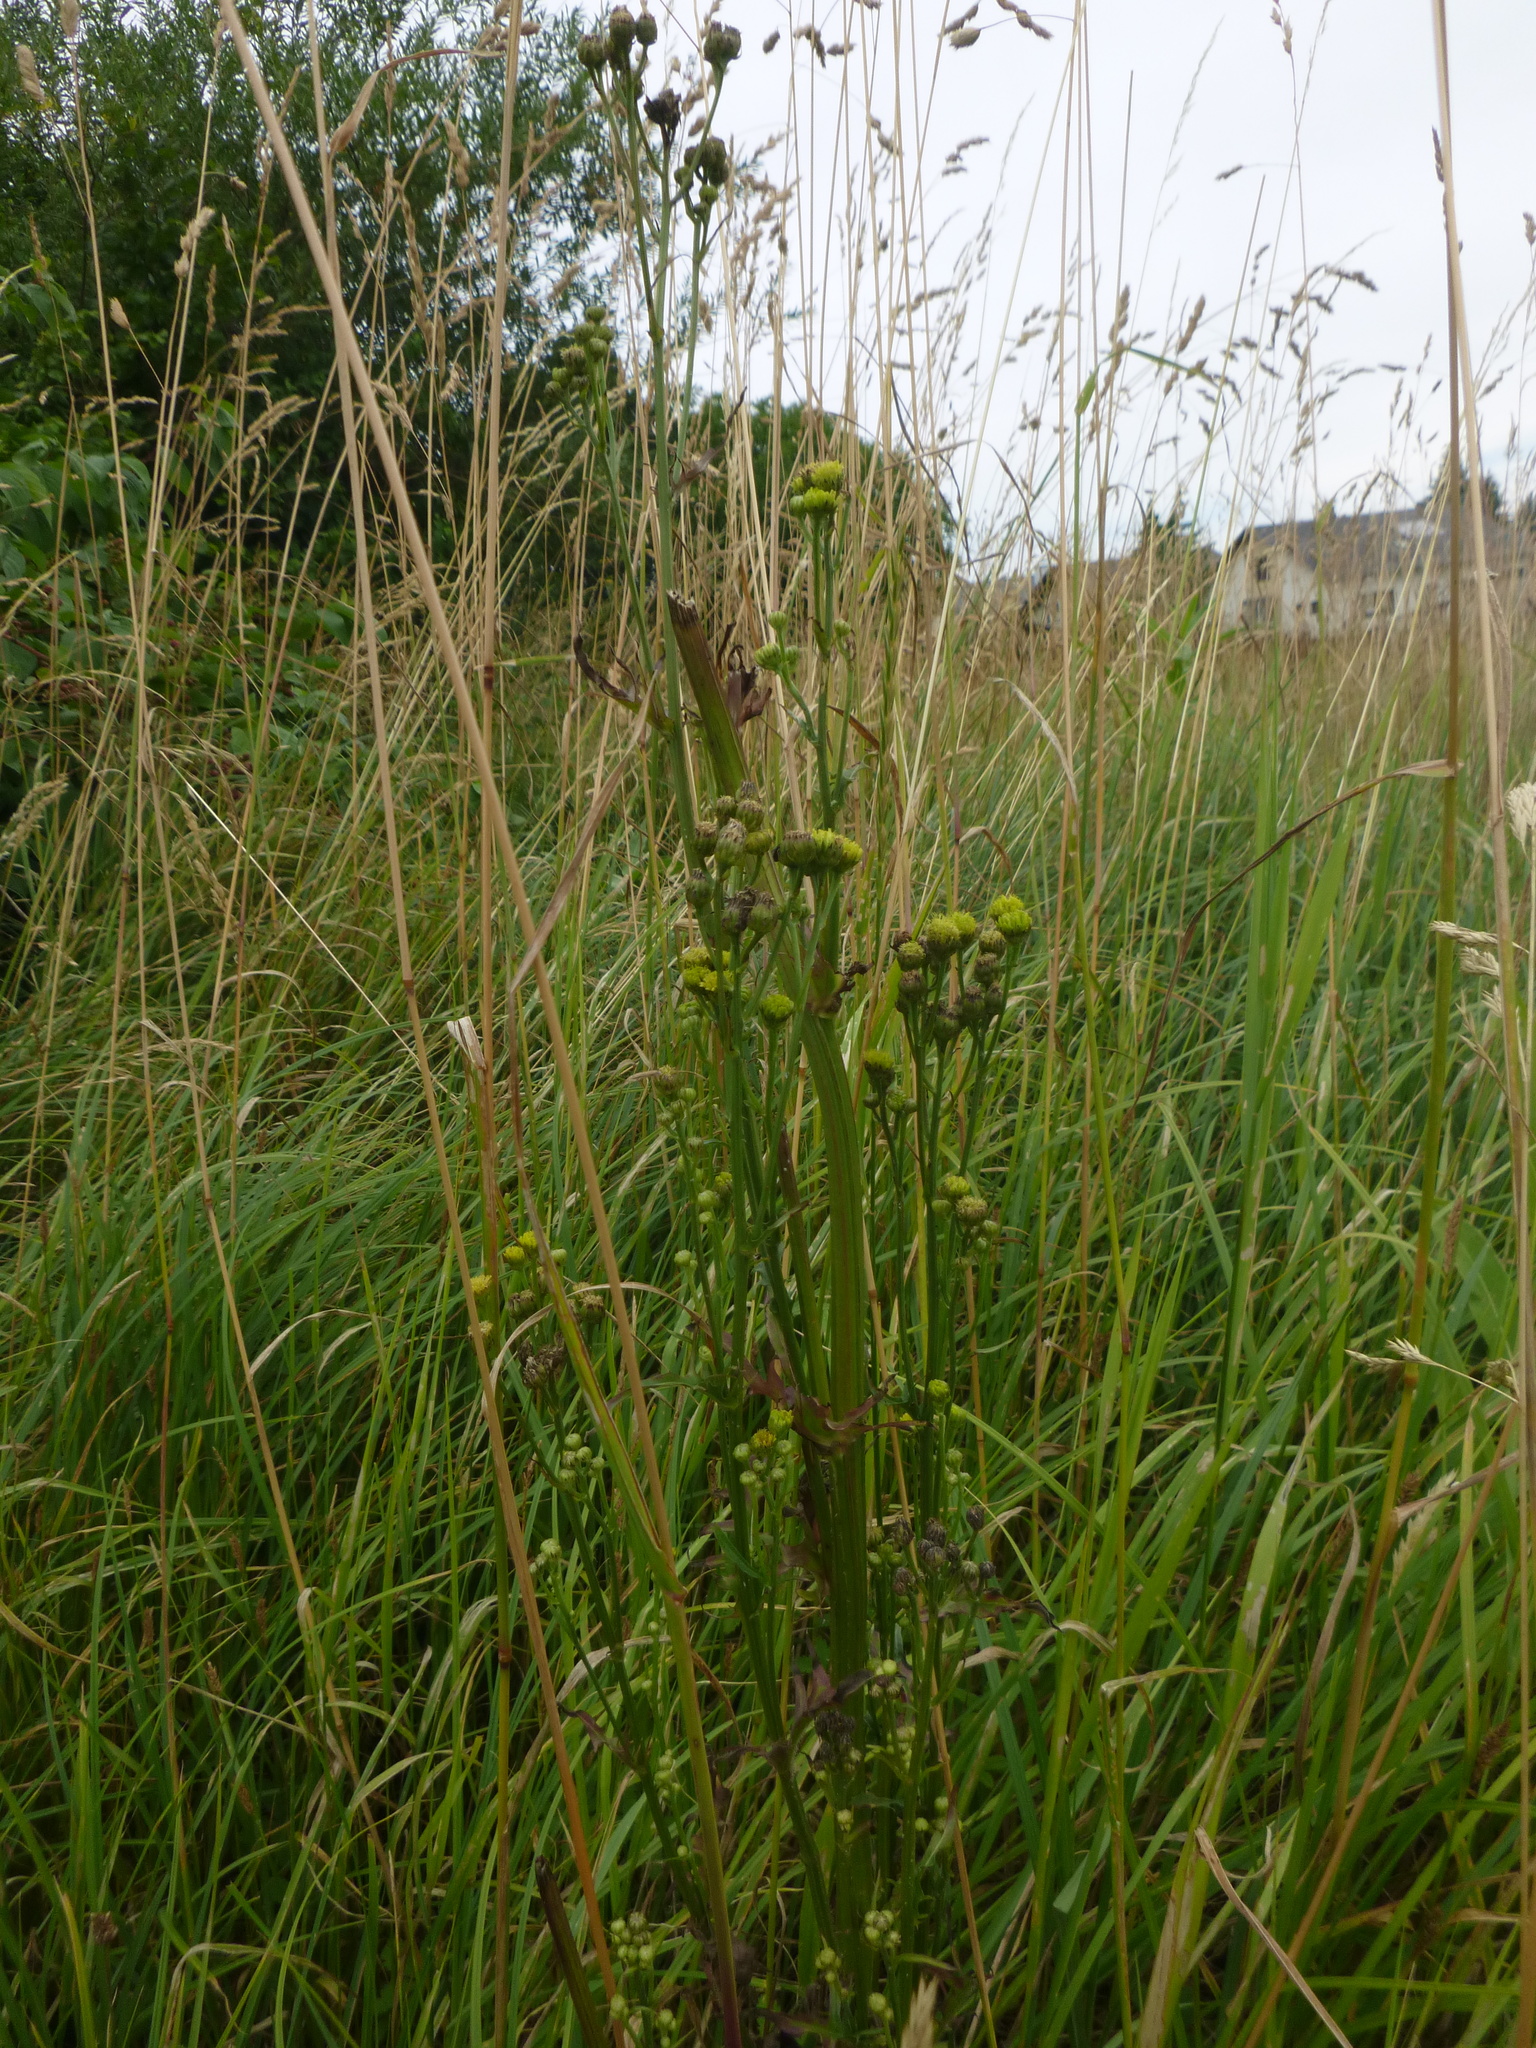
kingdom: Plantae
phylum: Tracheophyta
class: Magnoliopsida
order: Asterales
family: Asteraceae
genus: Crepis
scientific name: Crepis biennis
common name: Rough hawk's-beard
